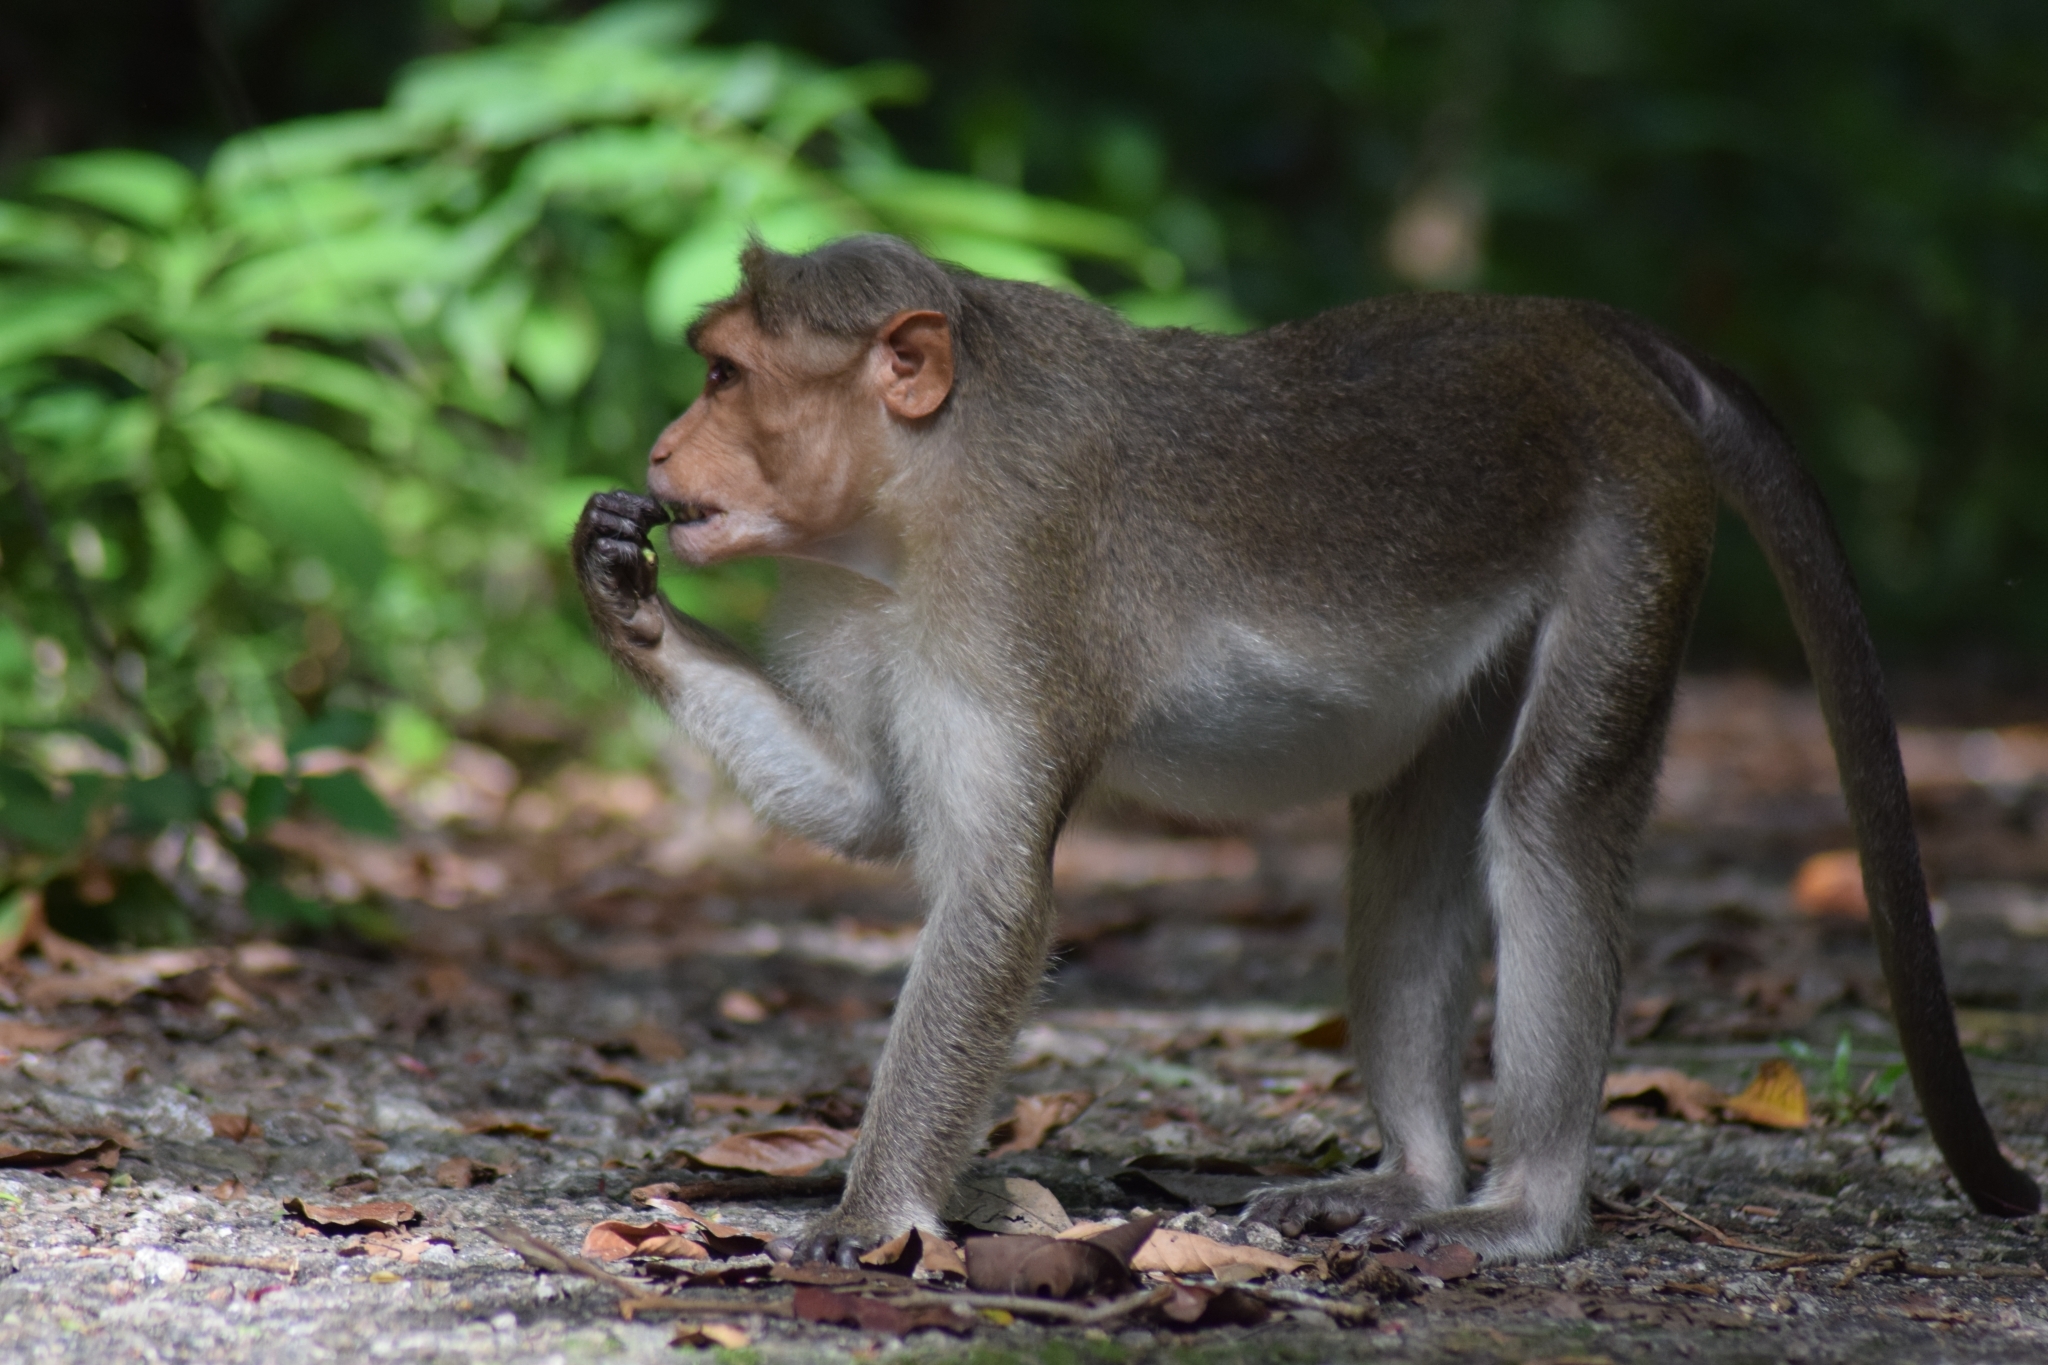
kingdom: Animalia
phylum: Chordata
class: Mammalia
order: Primates
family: Cercopithecidae
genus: Macaca
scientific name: Macaca radiata
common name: Bonnet macaque
